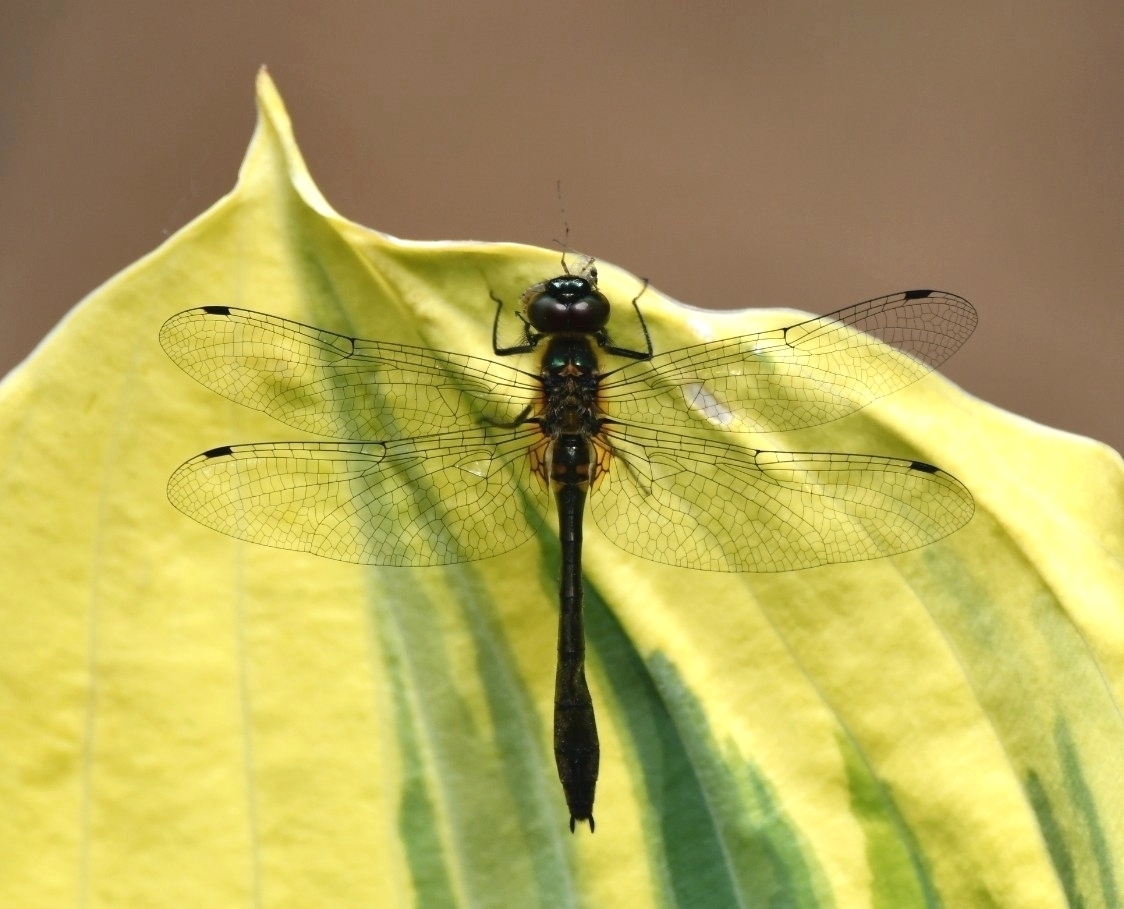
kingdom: Animalia
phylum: Arthropoda
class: Insecta
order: Odonata
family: Corduliidae
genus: Dorocordulia
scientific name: Dorocordulia libera
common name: Racket-tailed emerald
